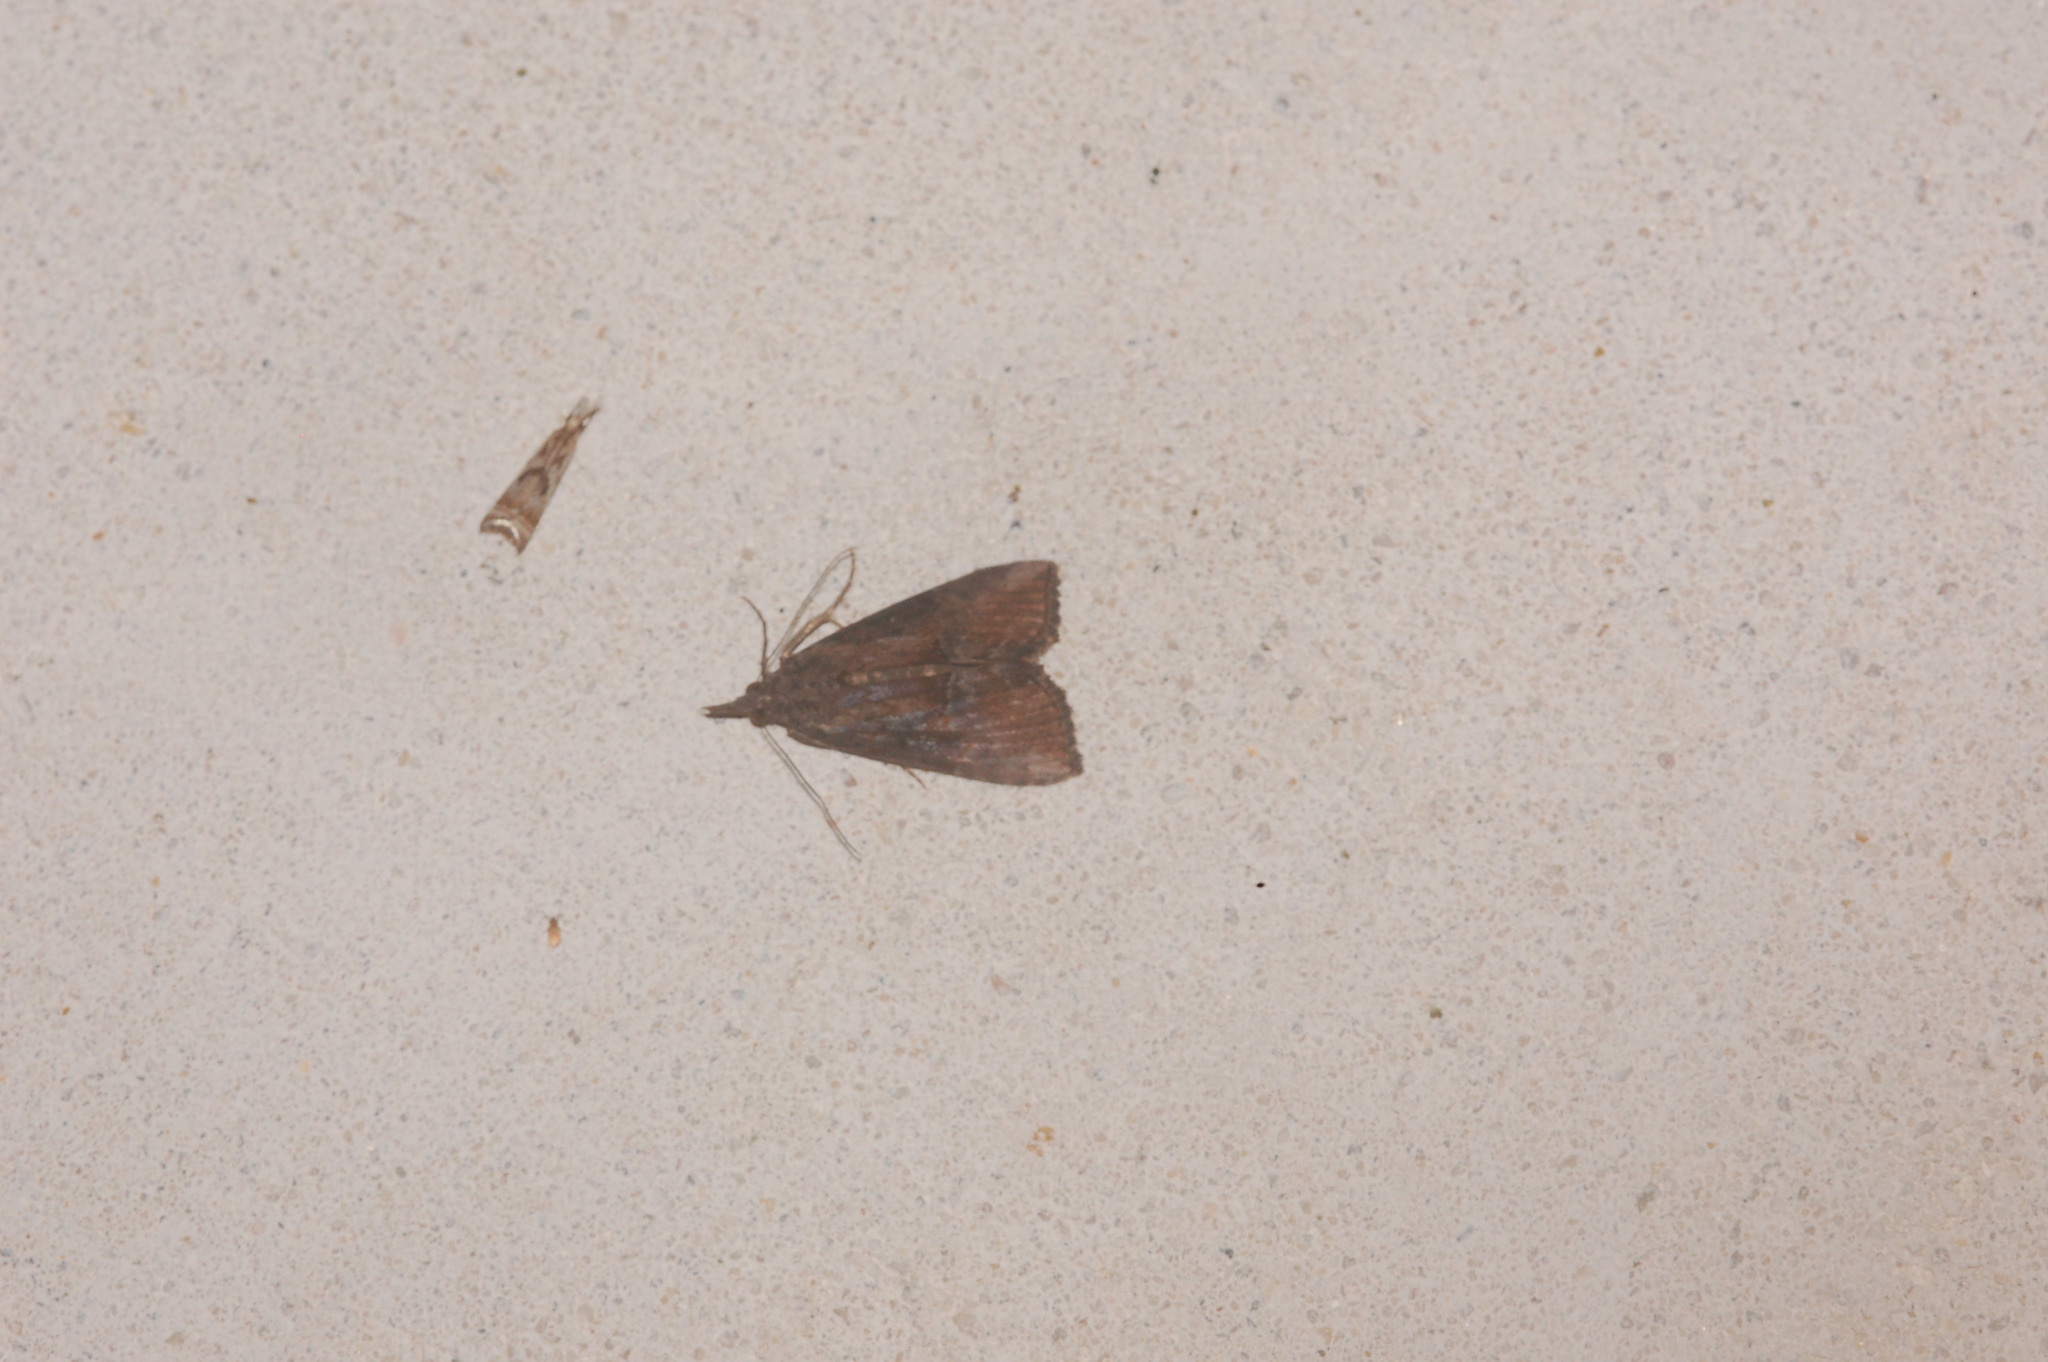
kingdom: Animalia
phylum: Arthropoda
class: Insecta
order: Lepidoptera
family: Erebidae
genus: Hypena
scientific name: Hypena scabra
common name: Green cloverworm
